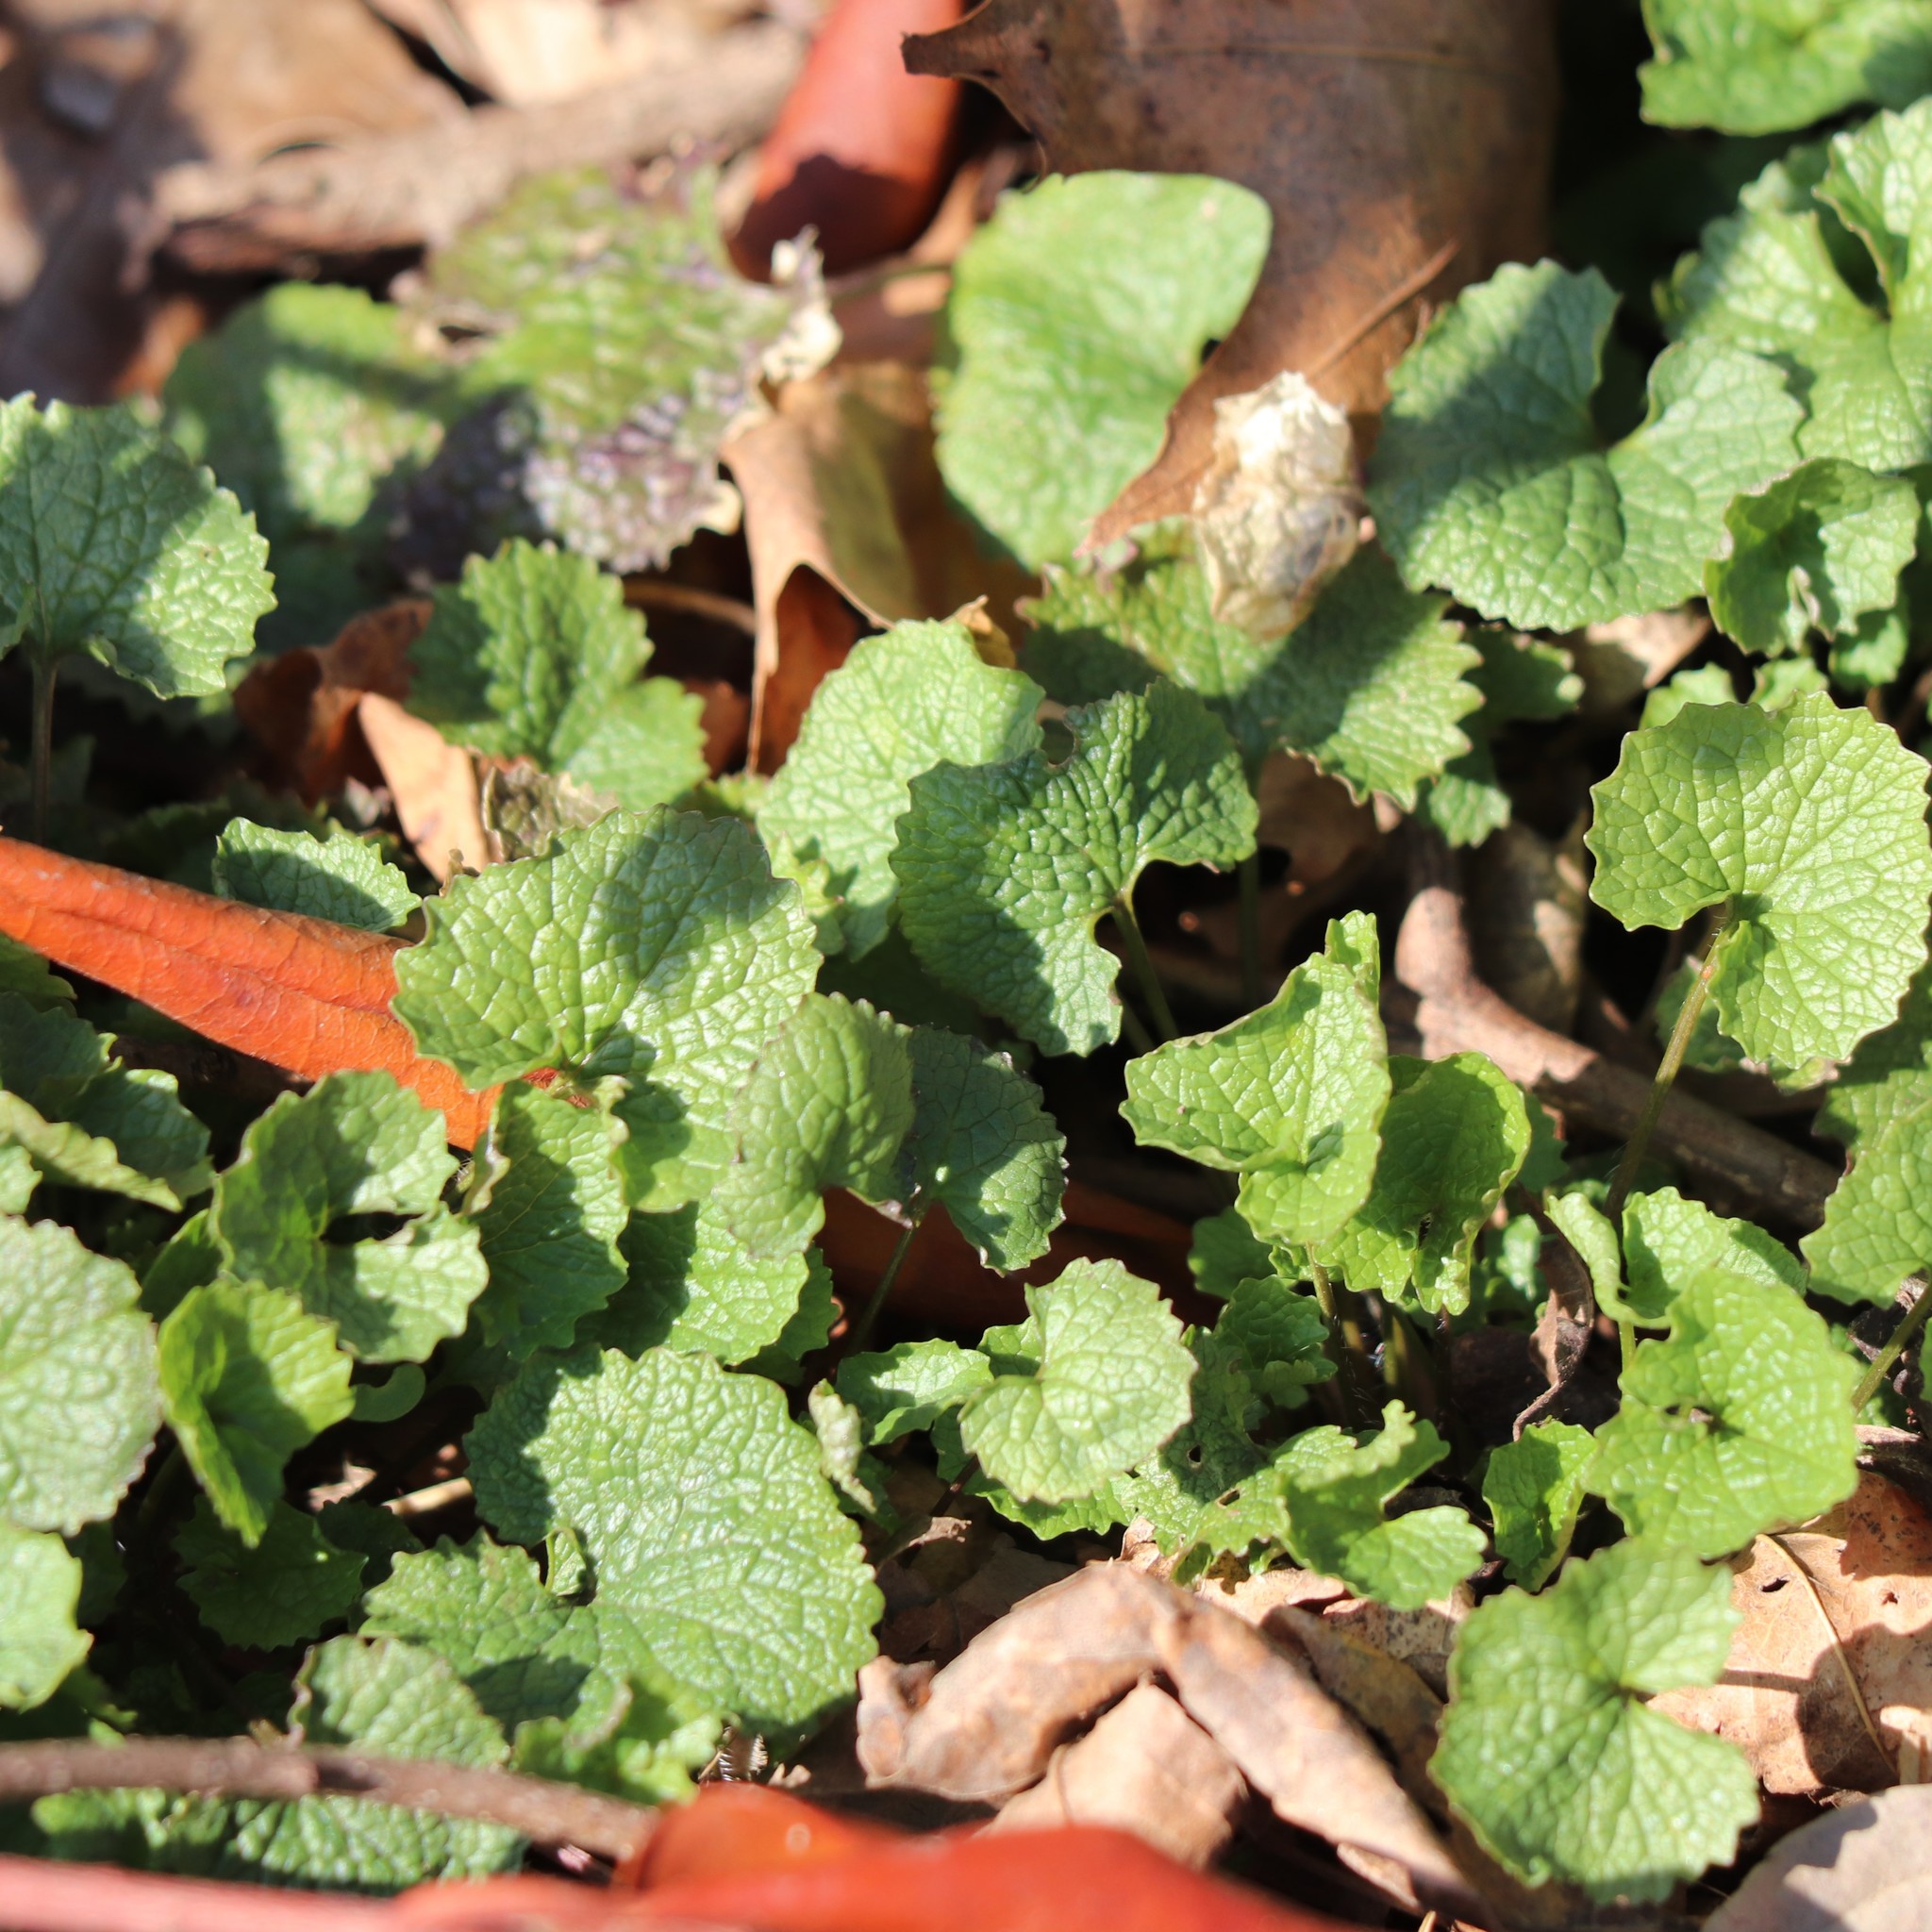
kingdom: Plantae
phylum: Tracheophyta
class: Magnoliopsida
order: Brassicales
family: Brassicaceae
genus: Alliaria
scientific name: Alliaria petiolata
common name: Garlic mustard
